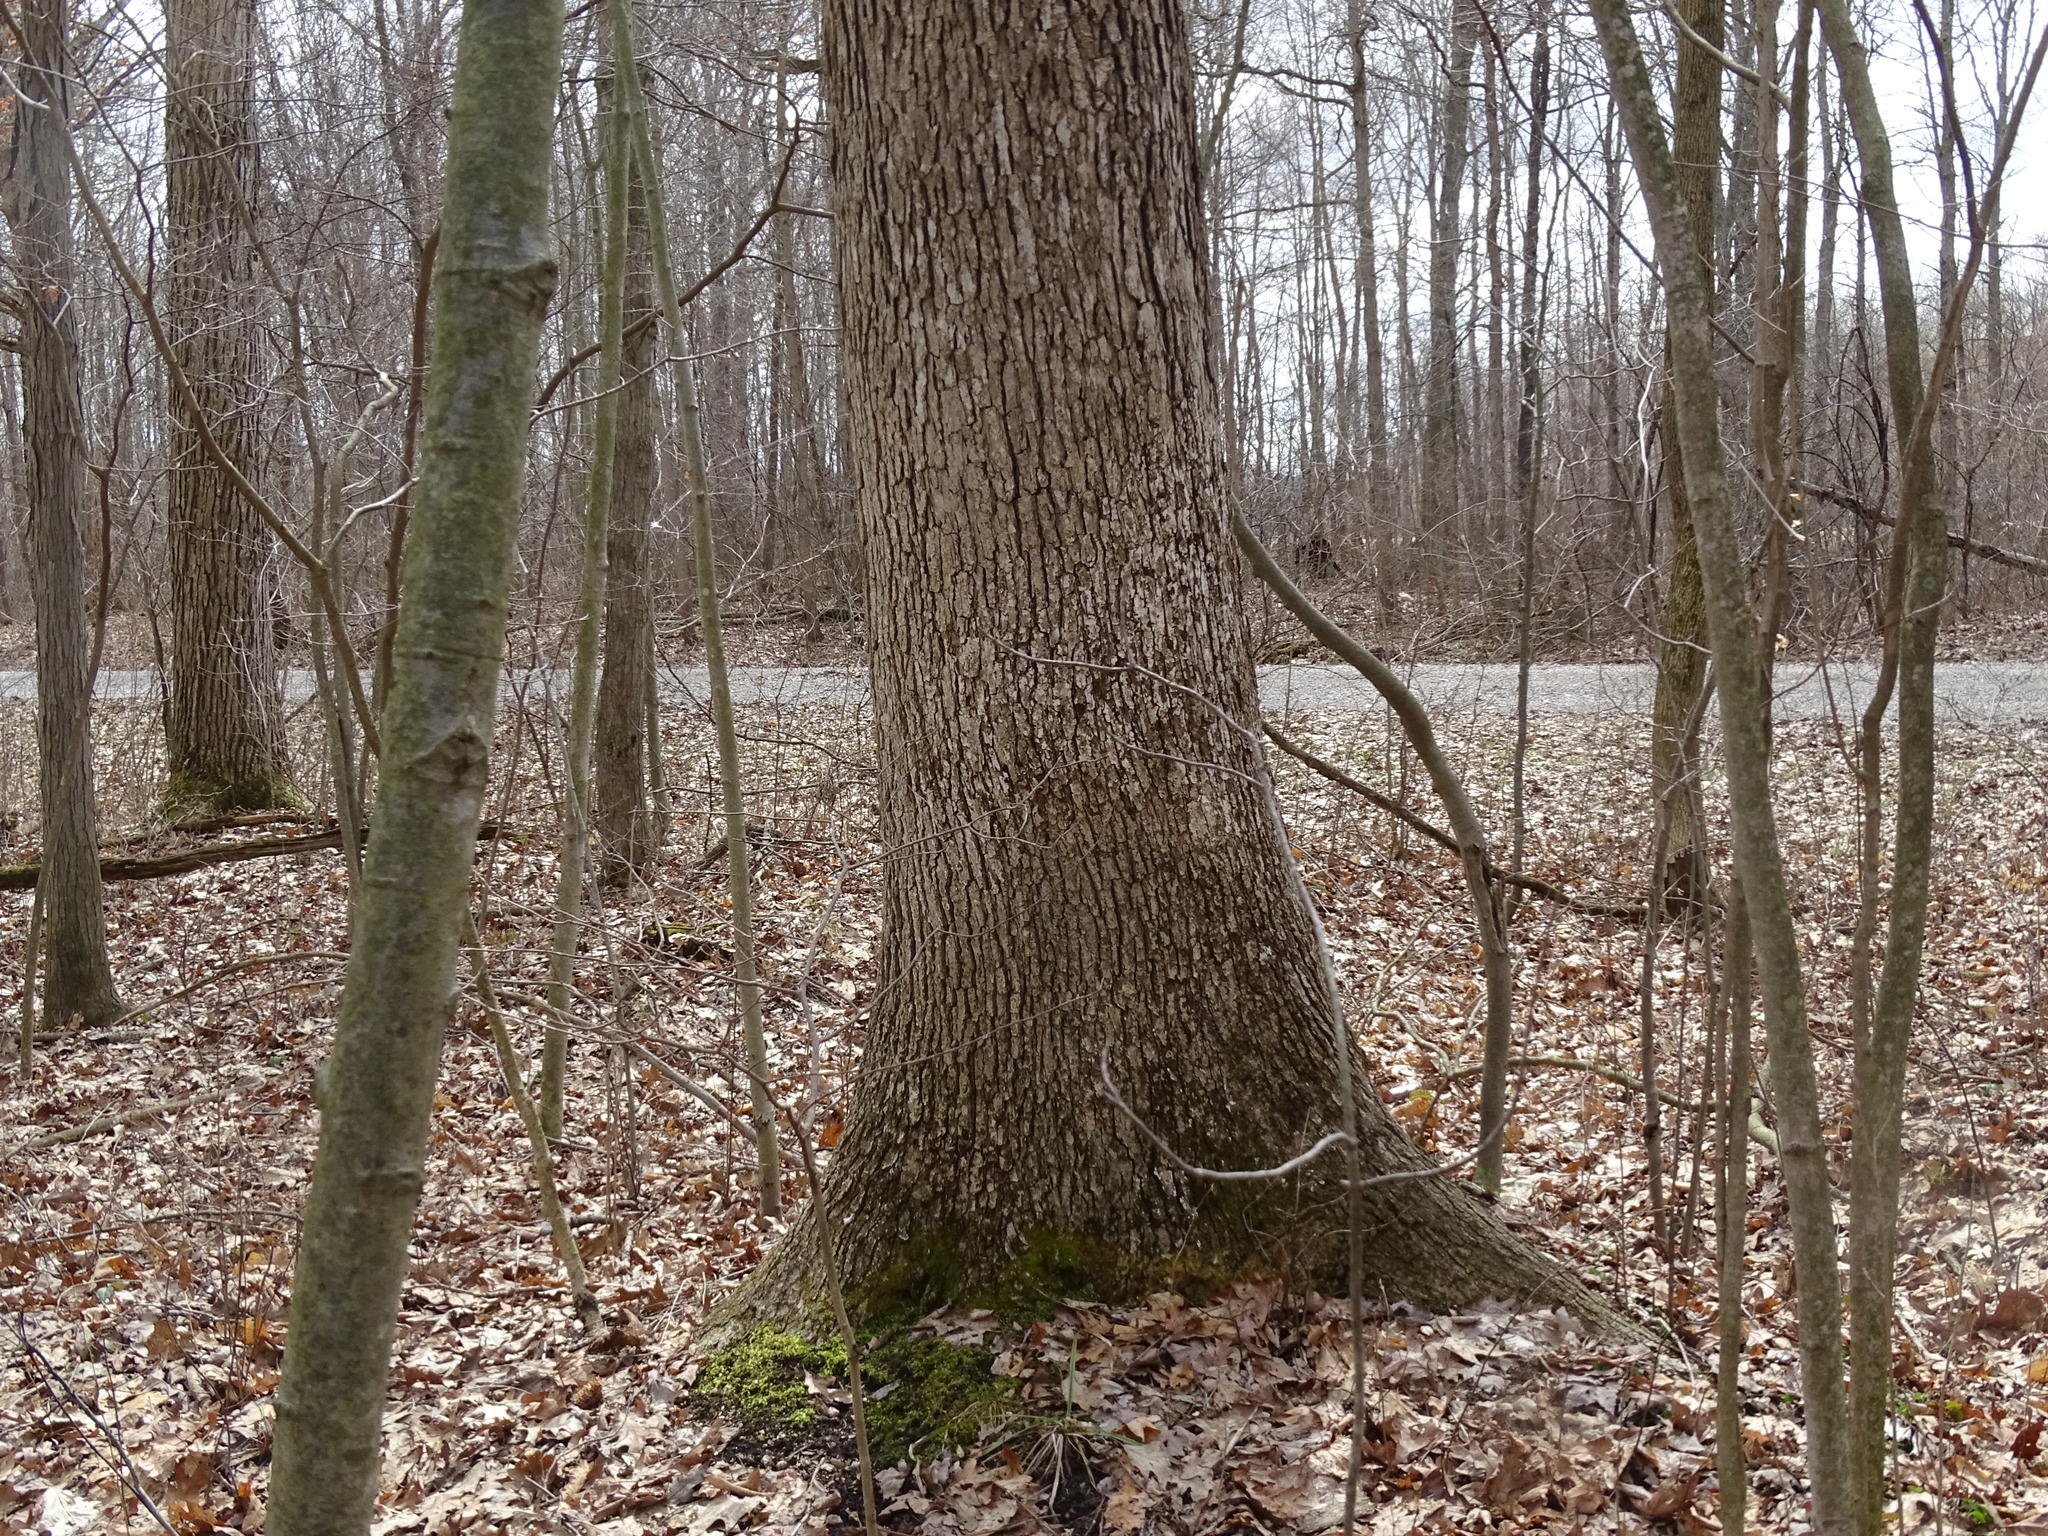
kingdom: Plantae
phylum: Tracheophyta
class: Magnoliopsida
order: Fagales
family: Fagaceae
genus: Quercus
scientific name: Quercus alba
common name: White oak
